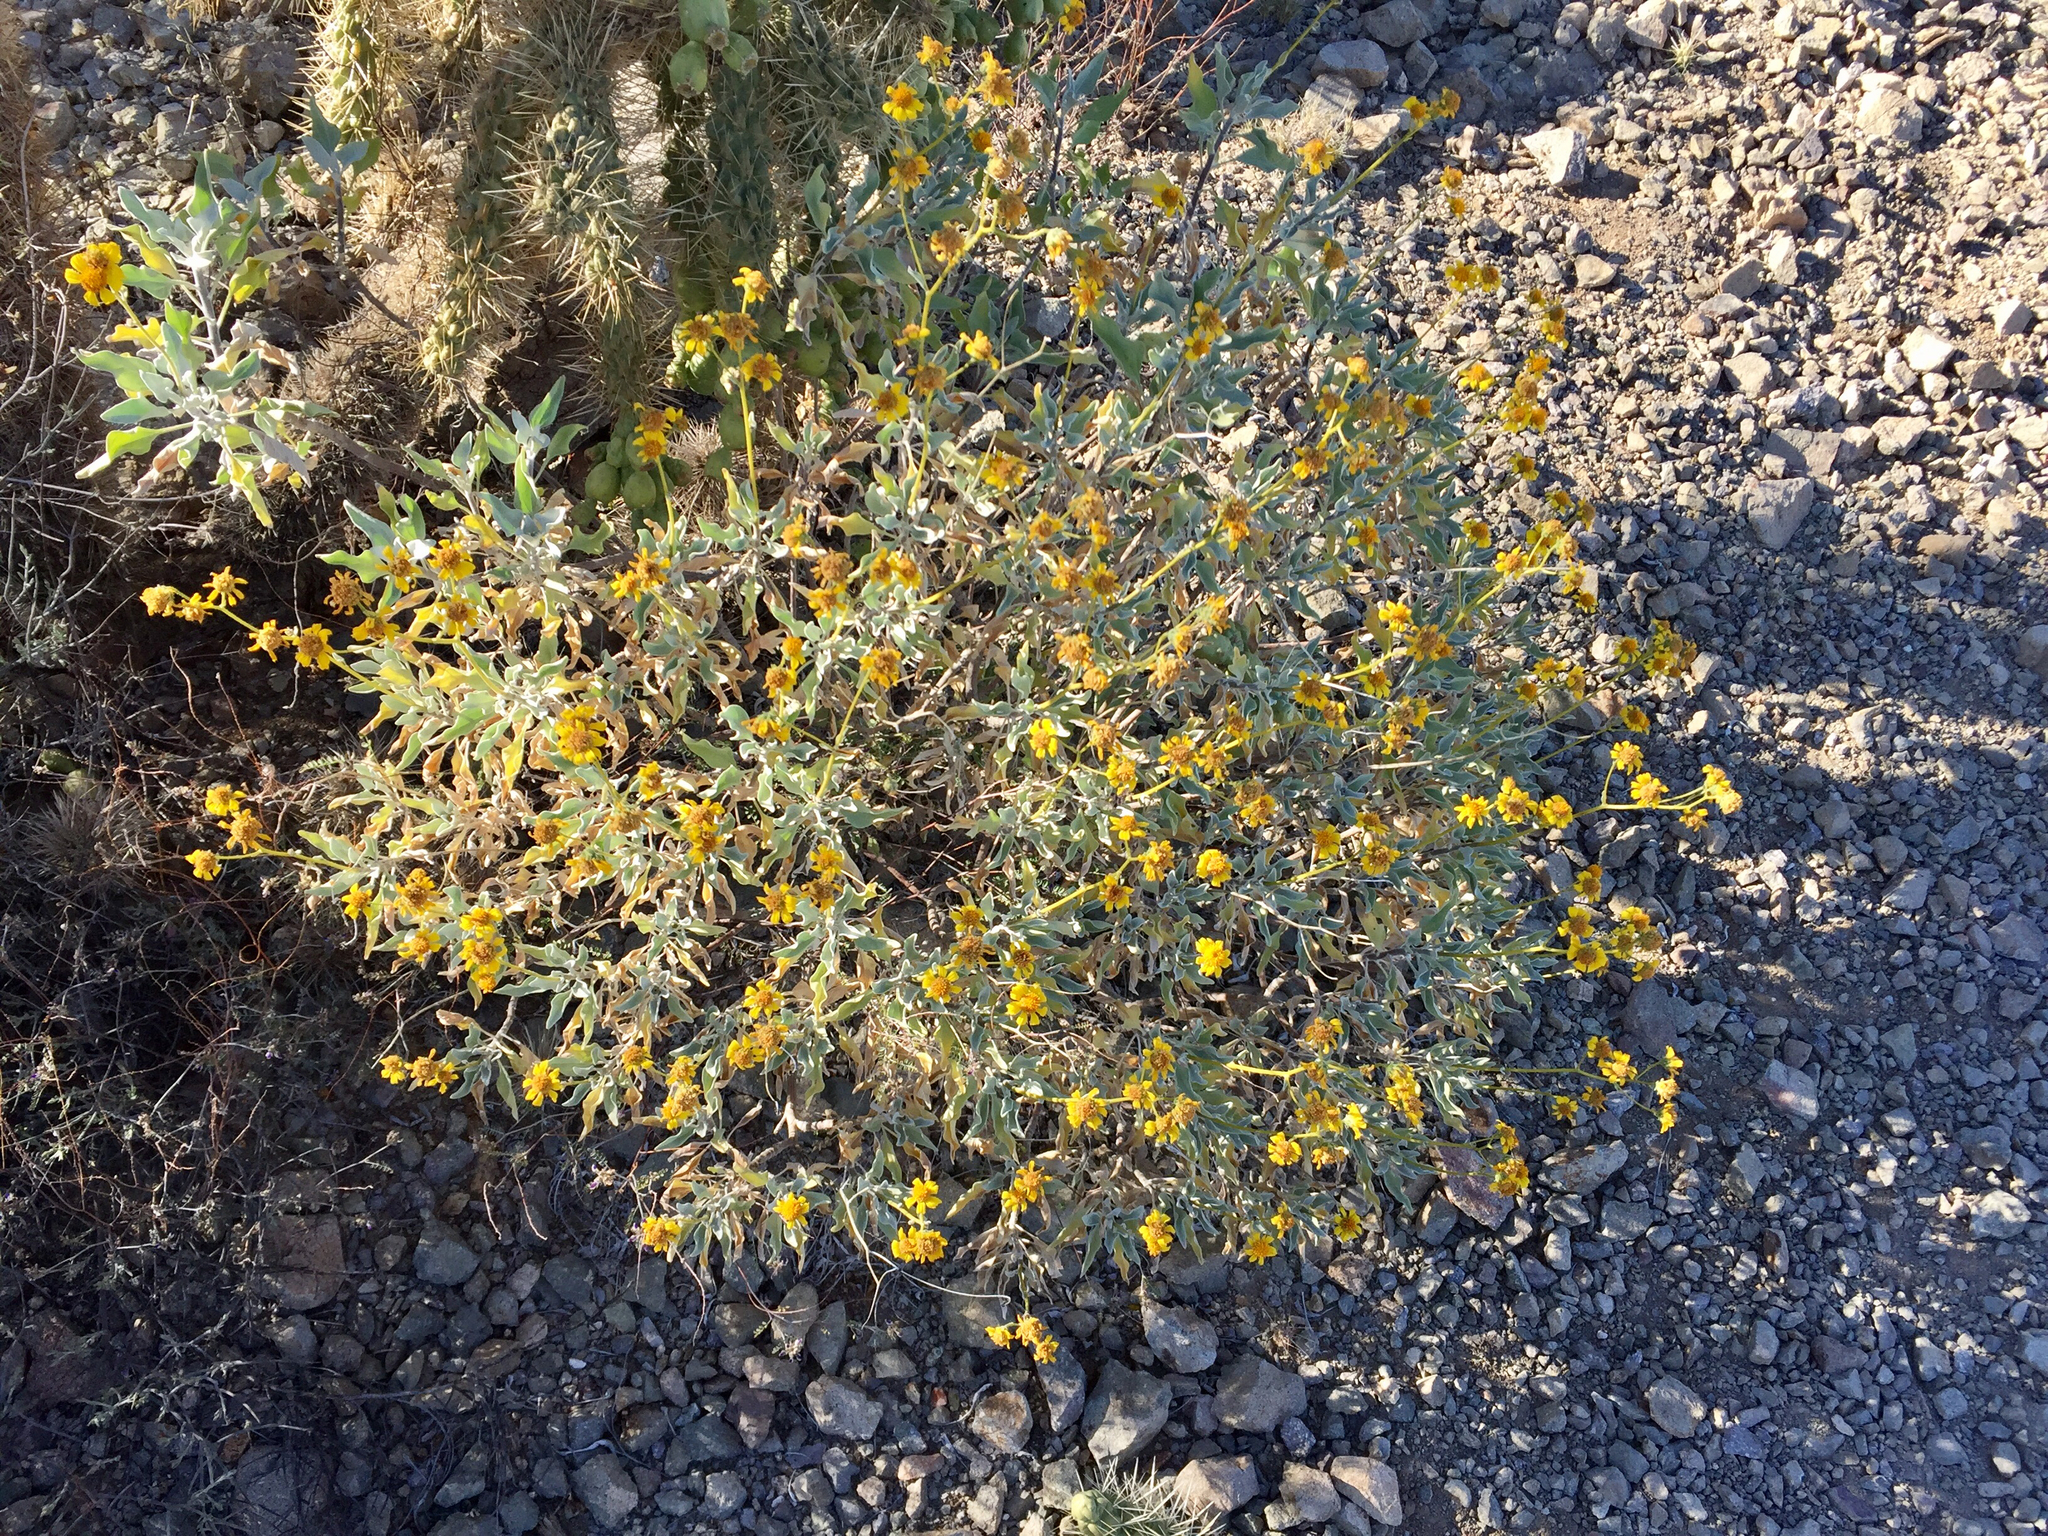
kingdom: Plantae
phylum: Tracheophyta
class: Magnoliopsida
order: Asterales
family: Asteraceae
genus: Encelia
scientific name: Encelia farinosa
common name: Brittlebush
